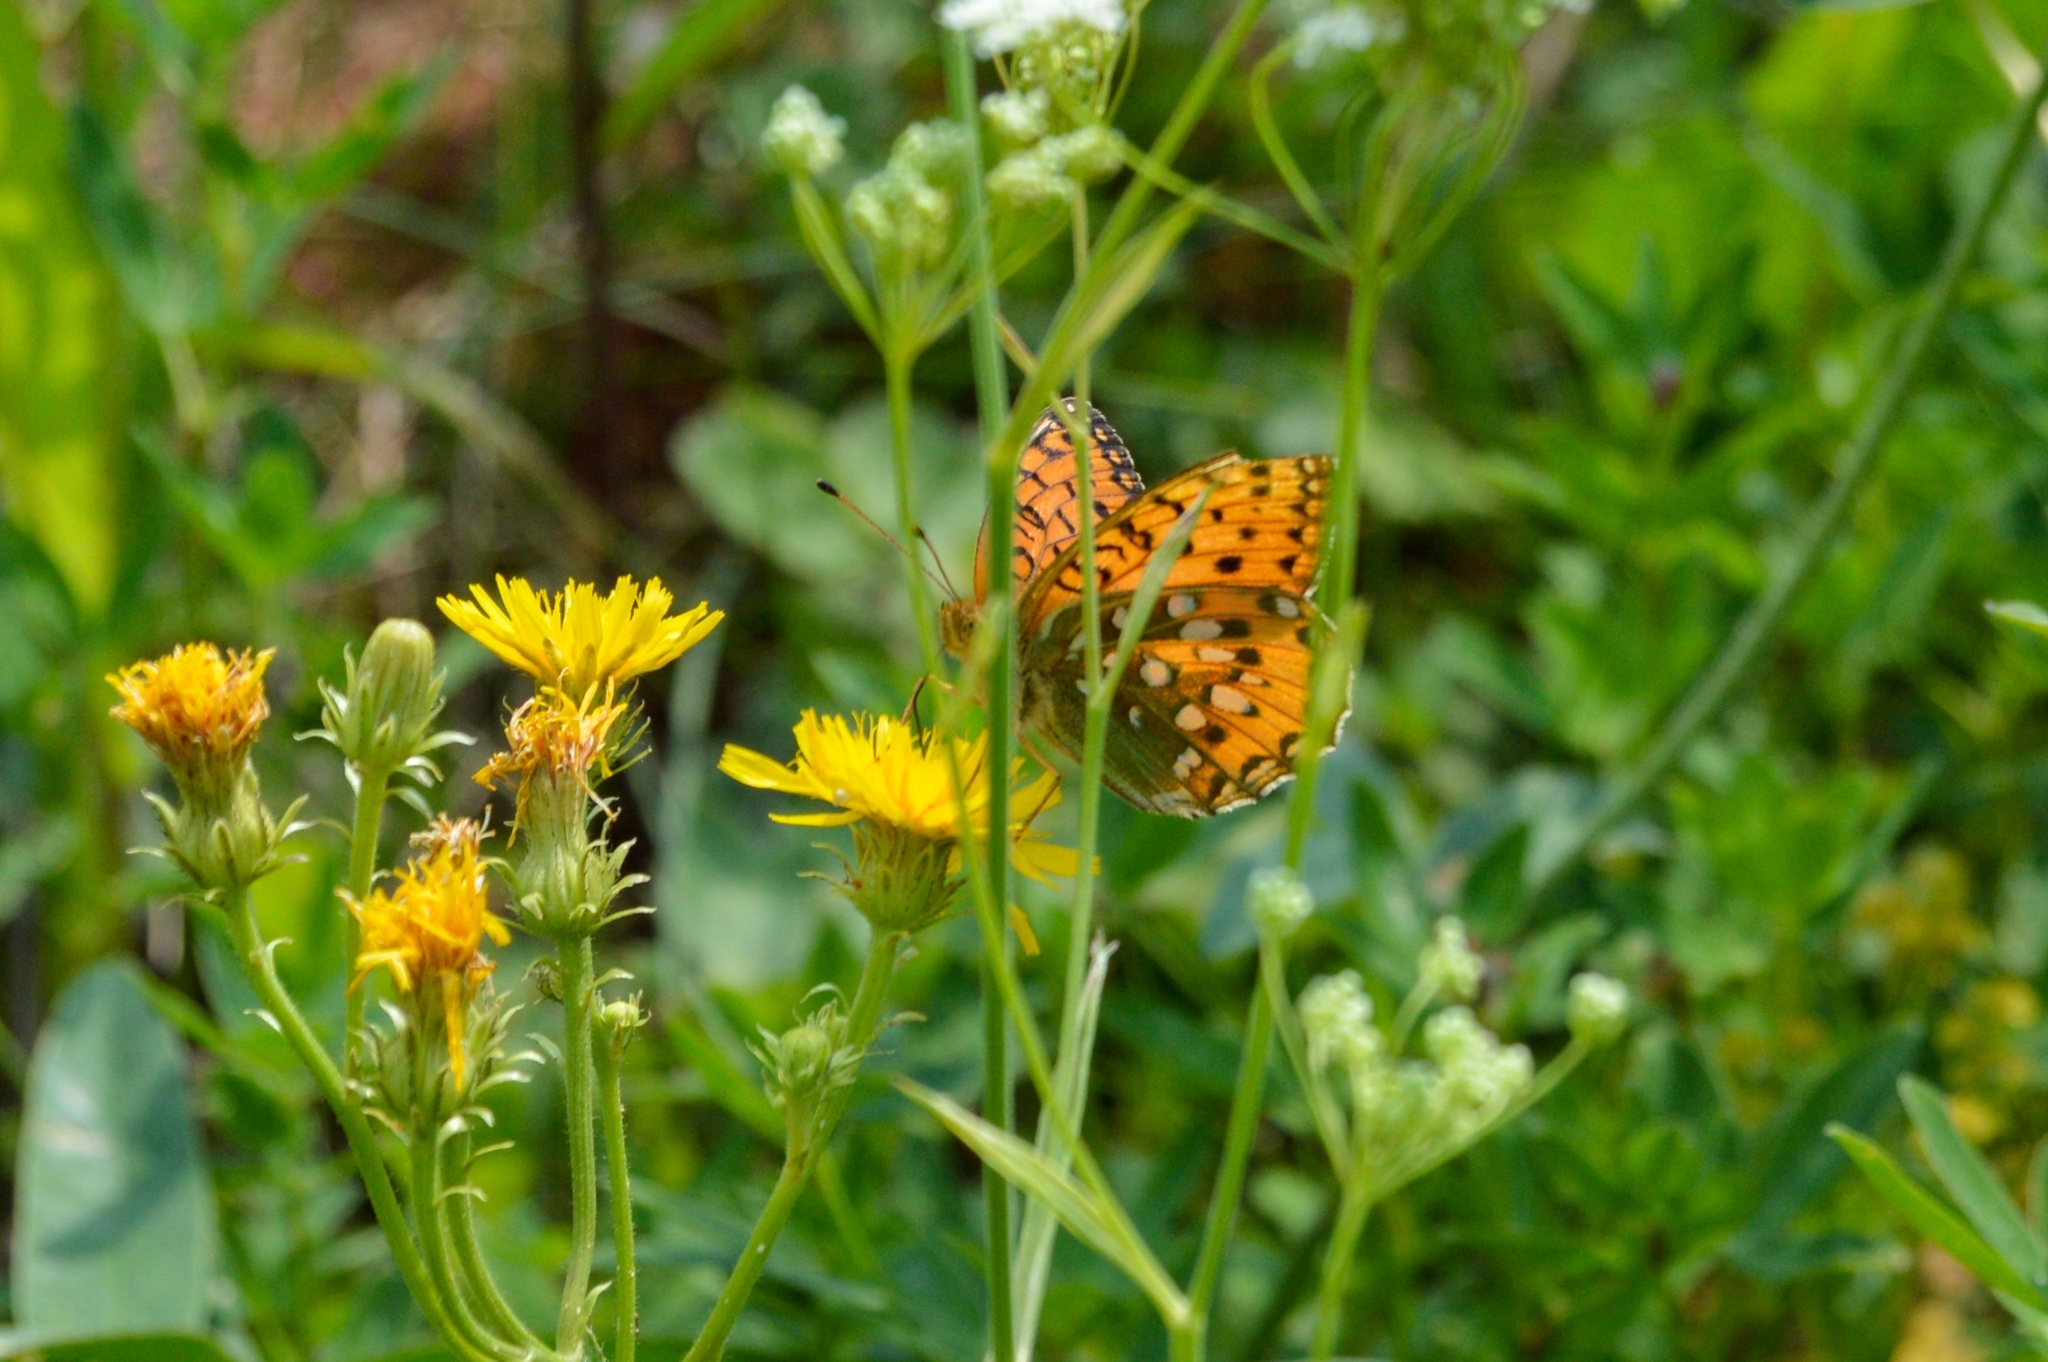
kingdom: Animalia
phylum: Arthropoda
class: Insecta
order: Lepidoptera
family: Nymphalidae
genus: Speyeria
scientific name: Speyeria aglaja
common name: Dark green fritillary
